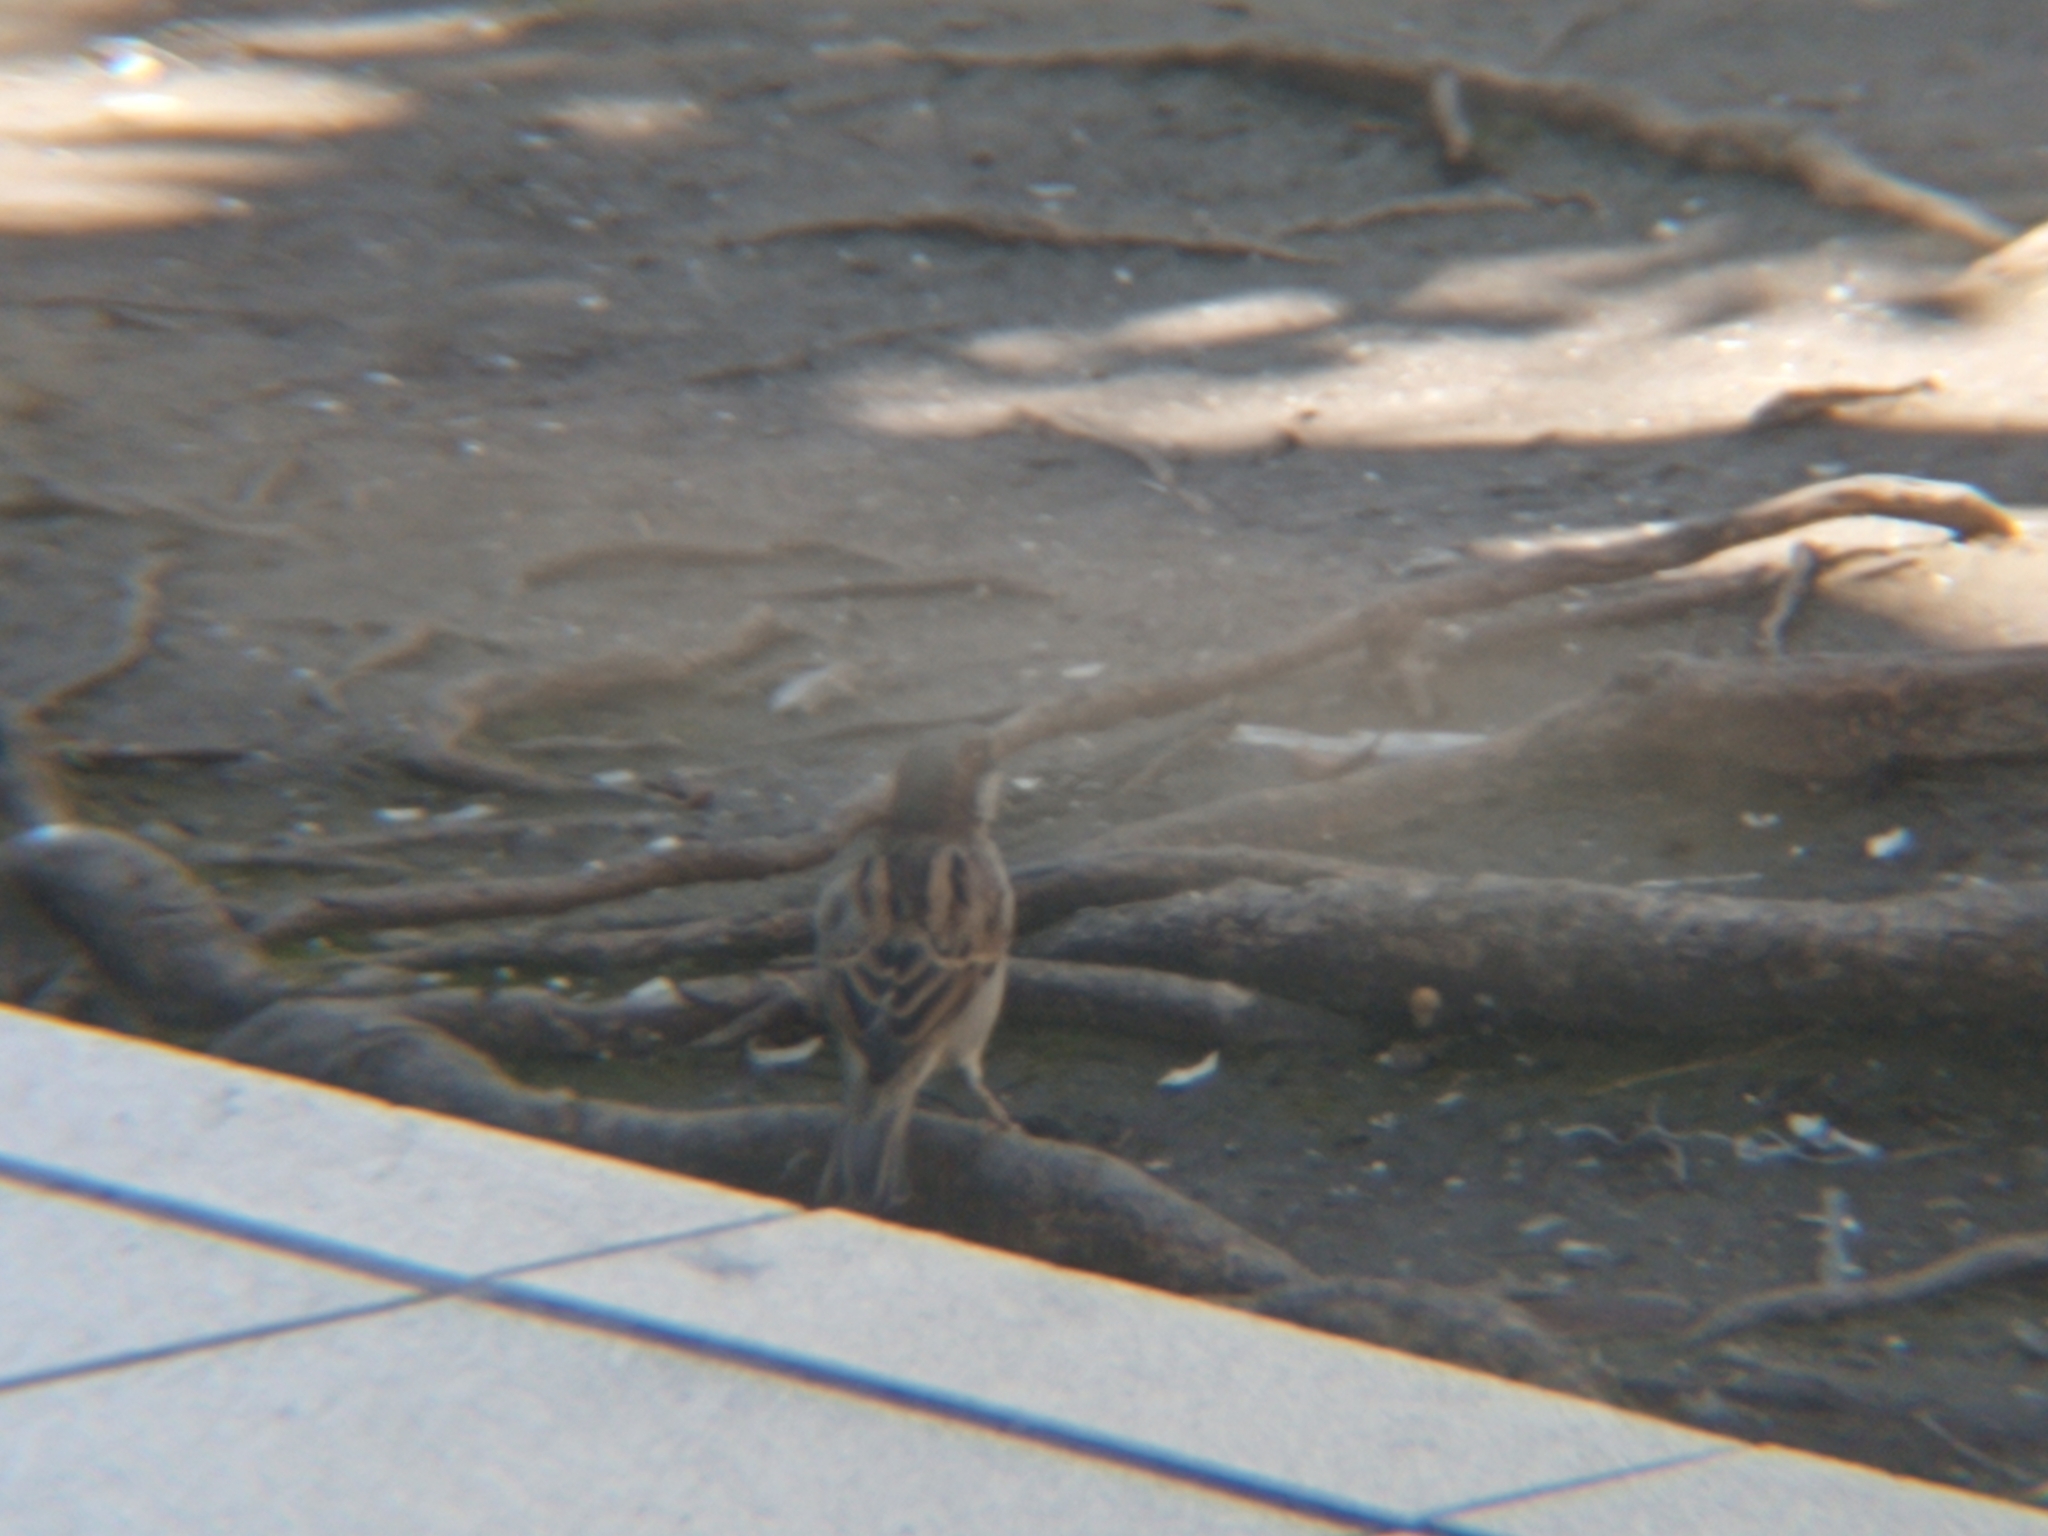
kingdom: Animalia
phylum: Chordata
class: Aves
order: Passeriformes
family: Passeridae
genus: Passer
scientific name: Passer domesticus
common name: House sparrow
